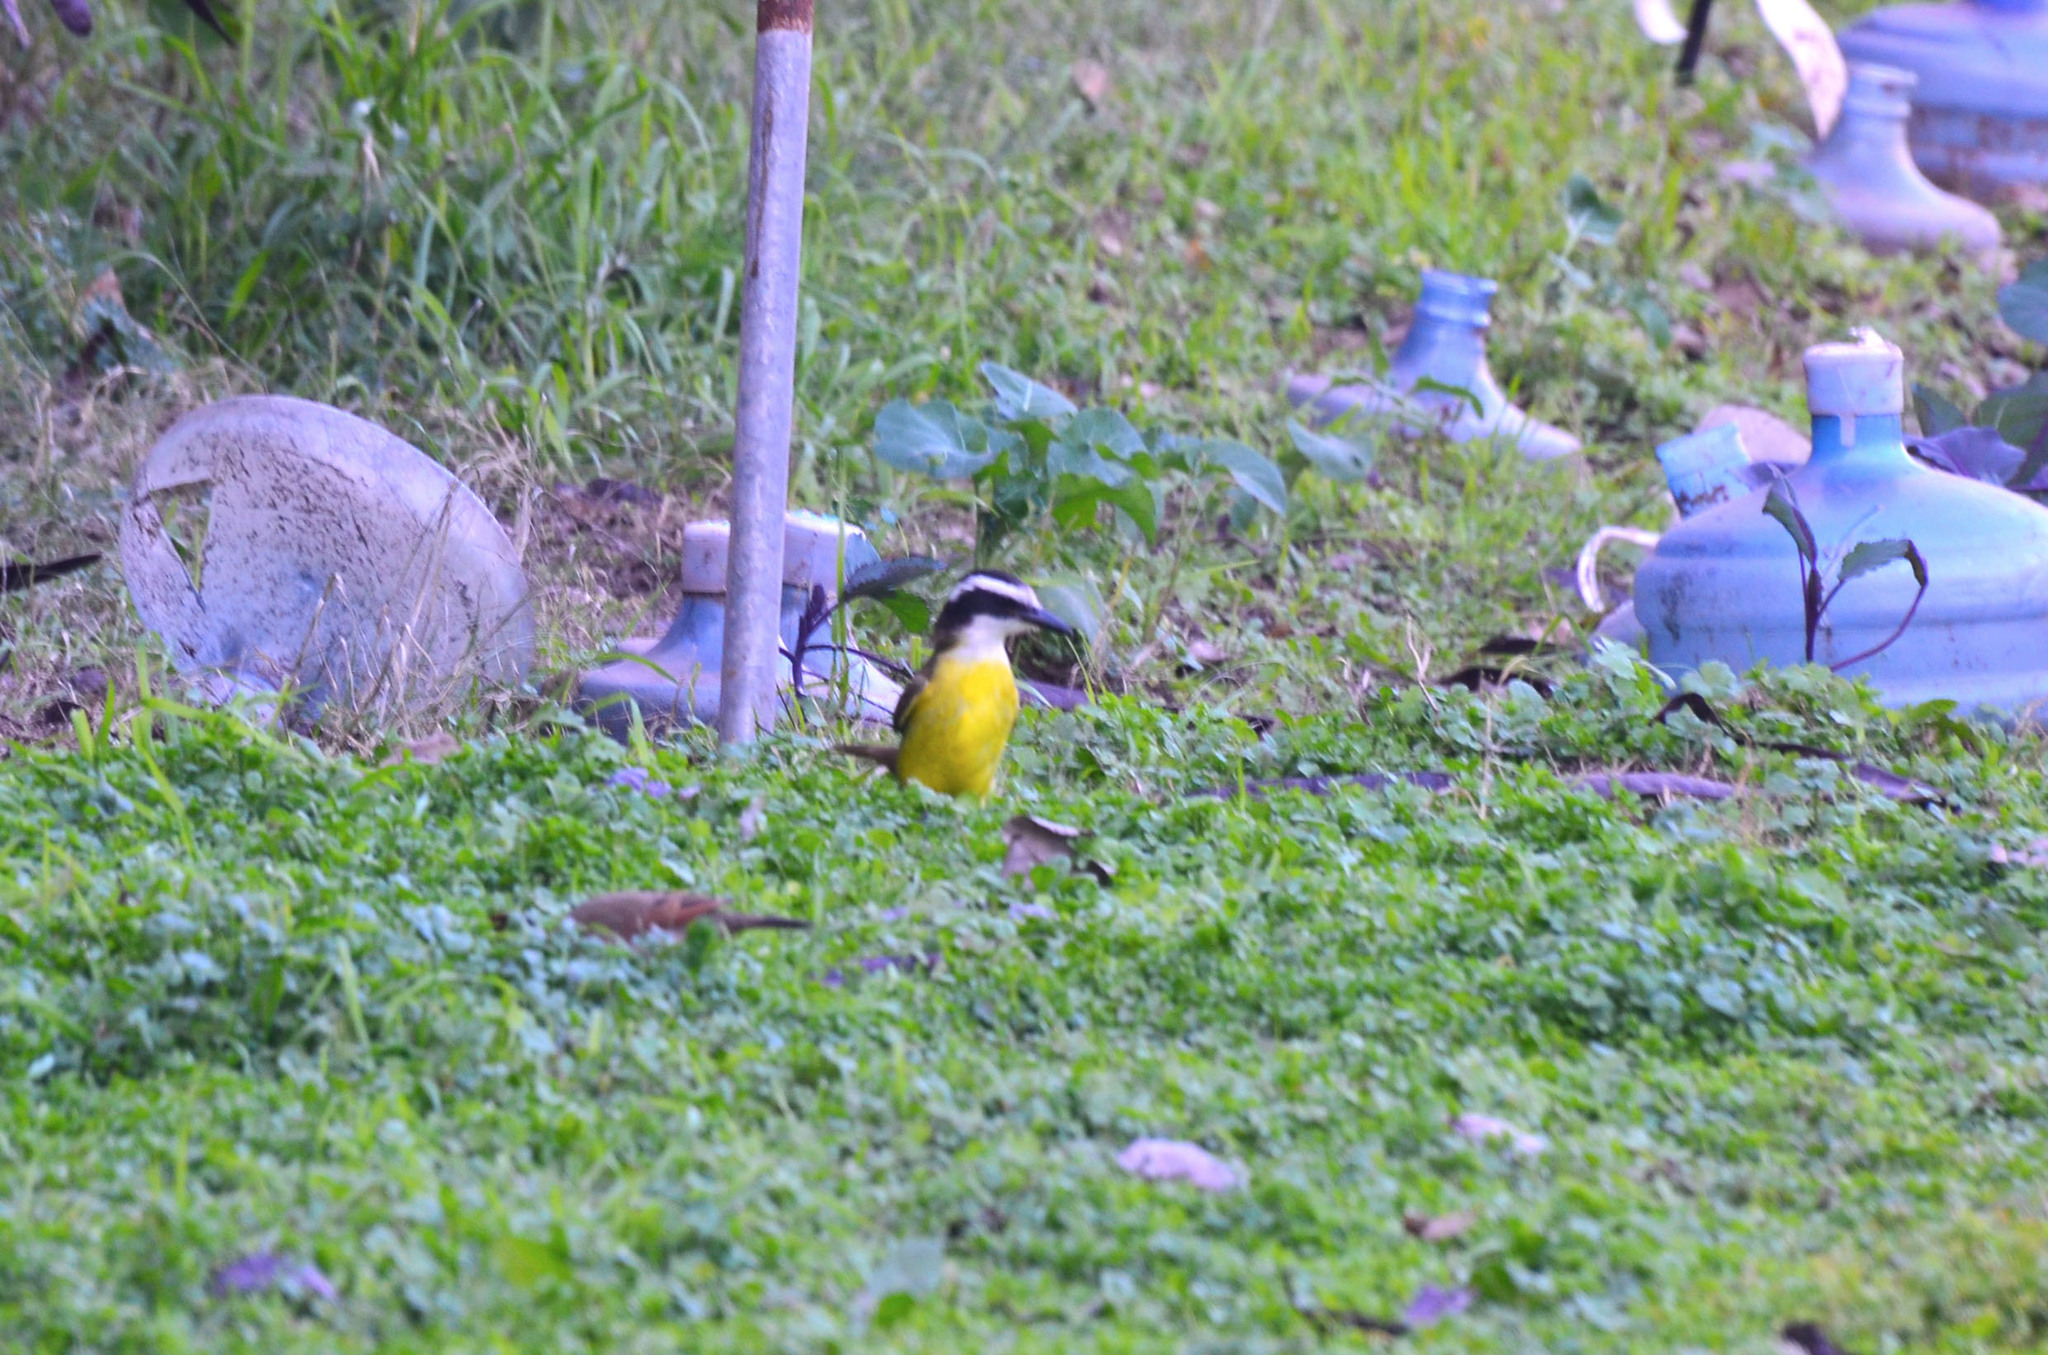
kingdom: Animalia
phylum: Chordata
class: Aves
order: Passeriformes
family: Tyrannidae
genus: Pitangus
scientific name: Pitangus sulphuratus
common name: Great kiskadee
